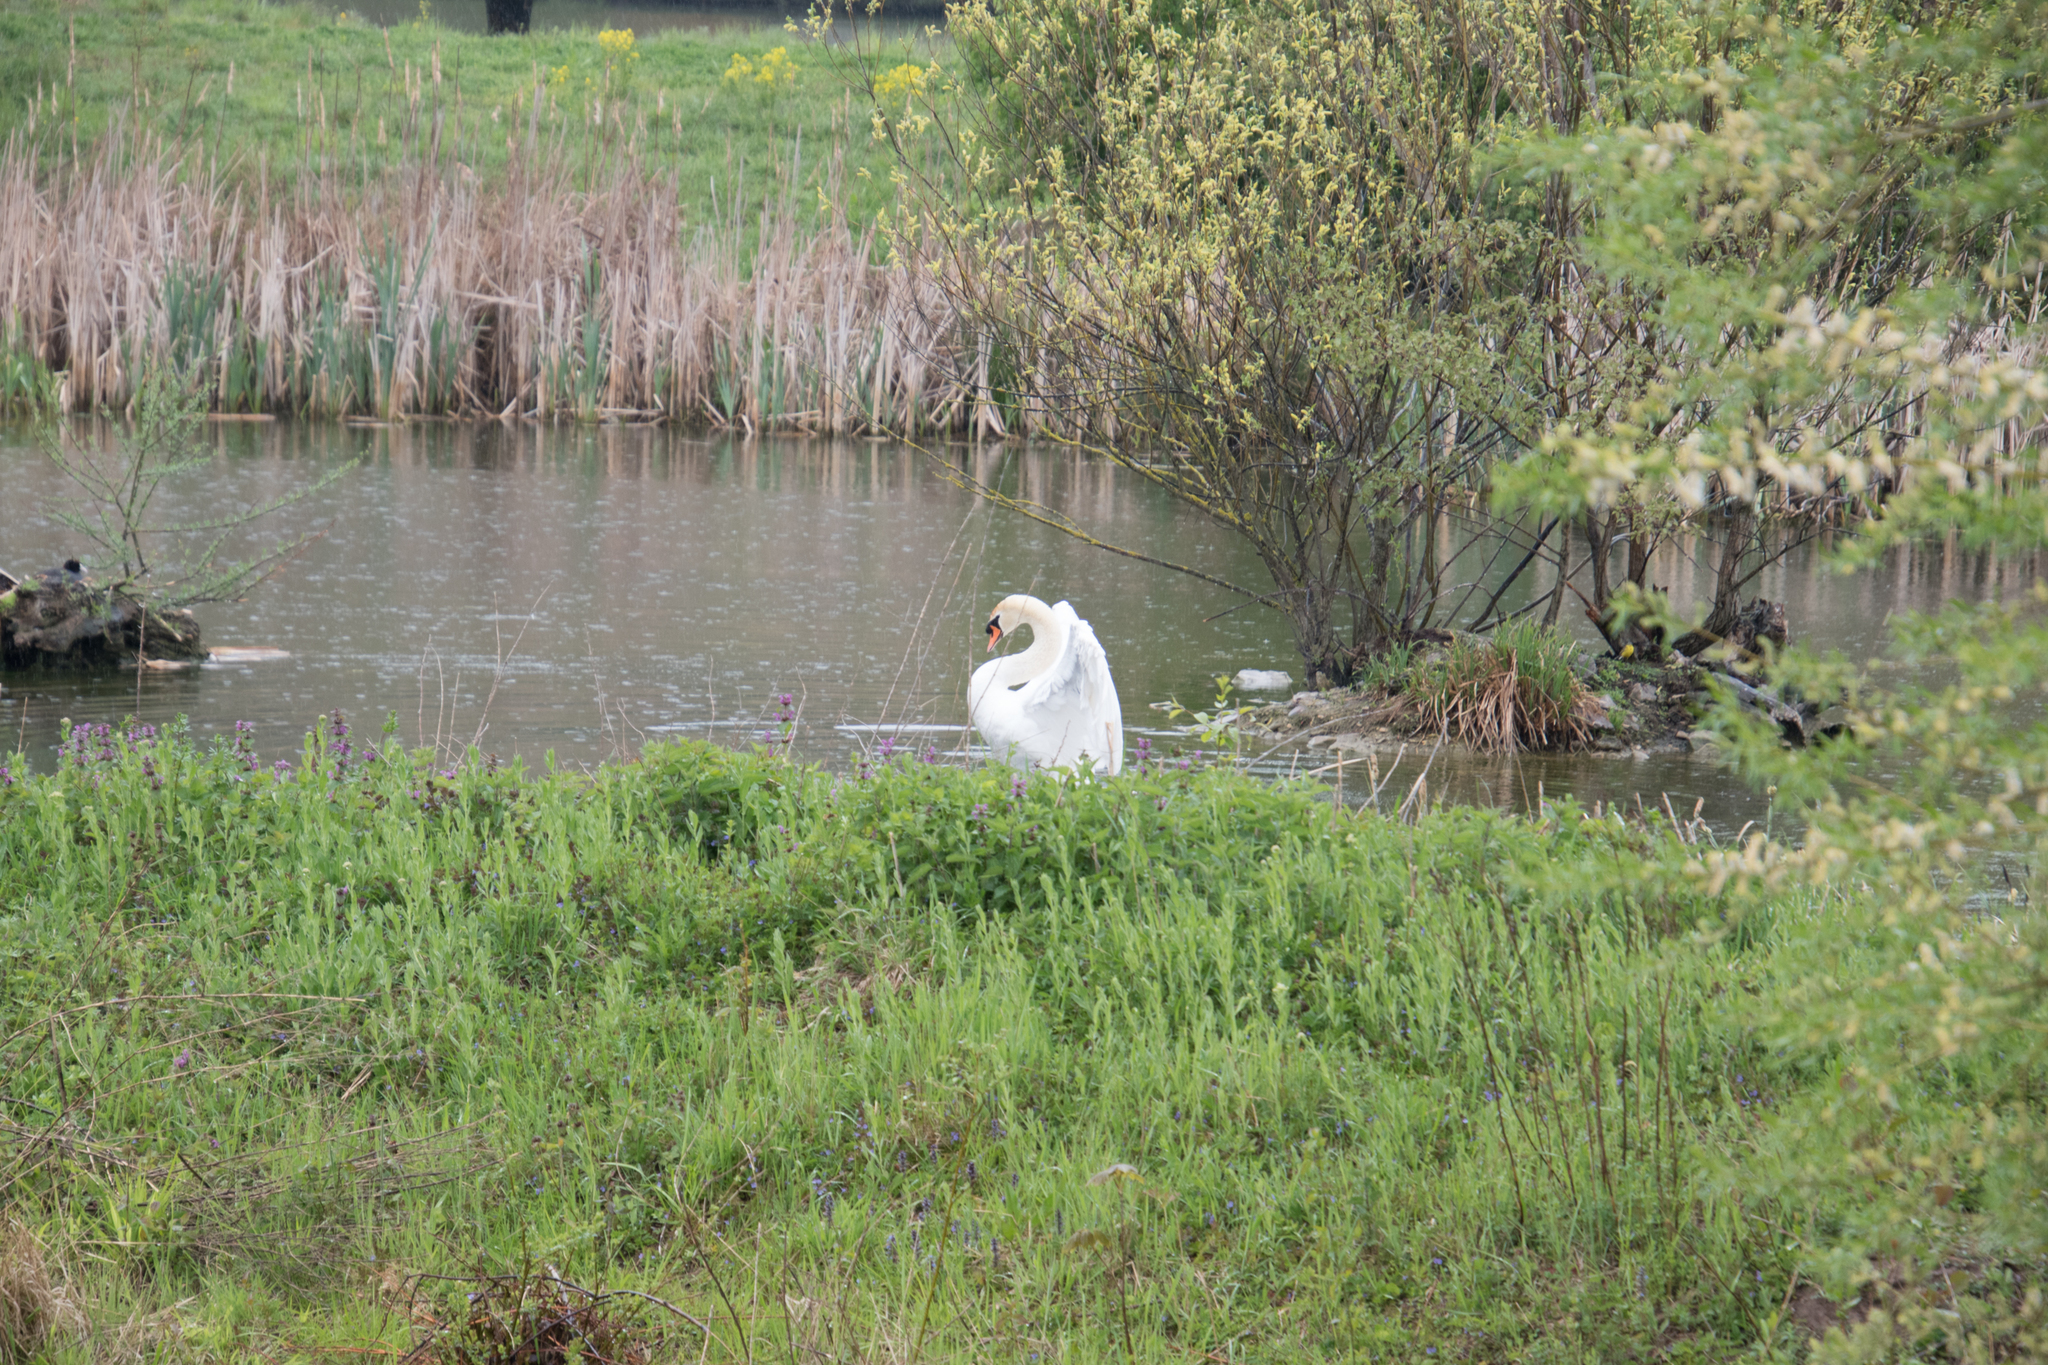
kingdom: Animalia
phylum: Chordata
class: Aves
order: Anseriformes
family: Anatidae
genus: Cygnus
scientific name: Cygnus olor
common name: Mute swan
